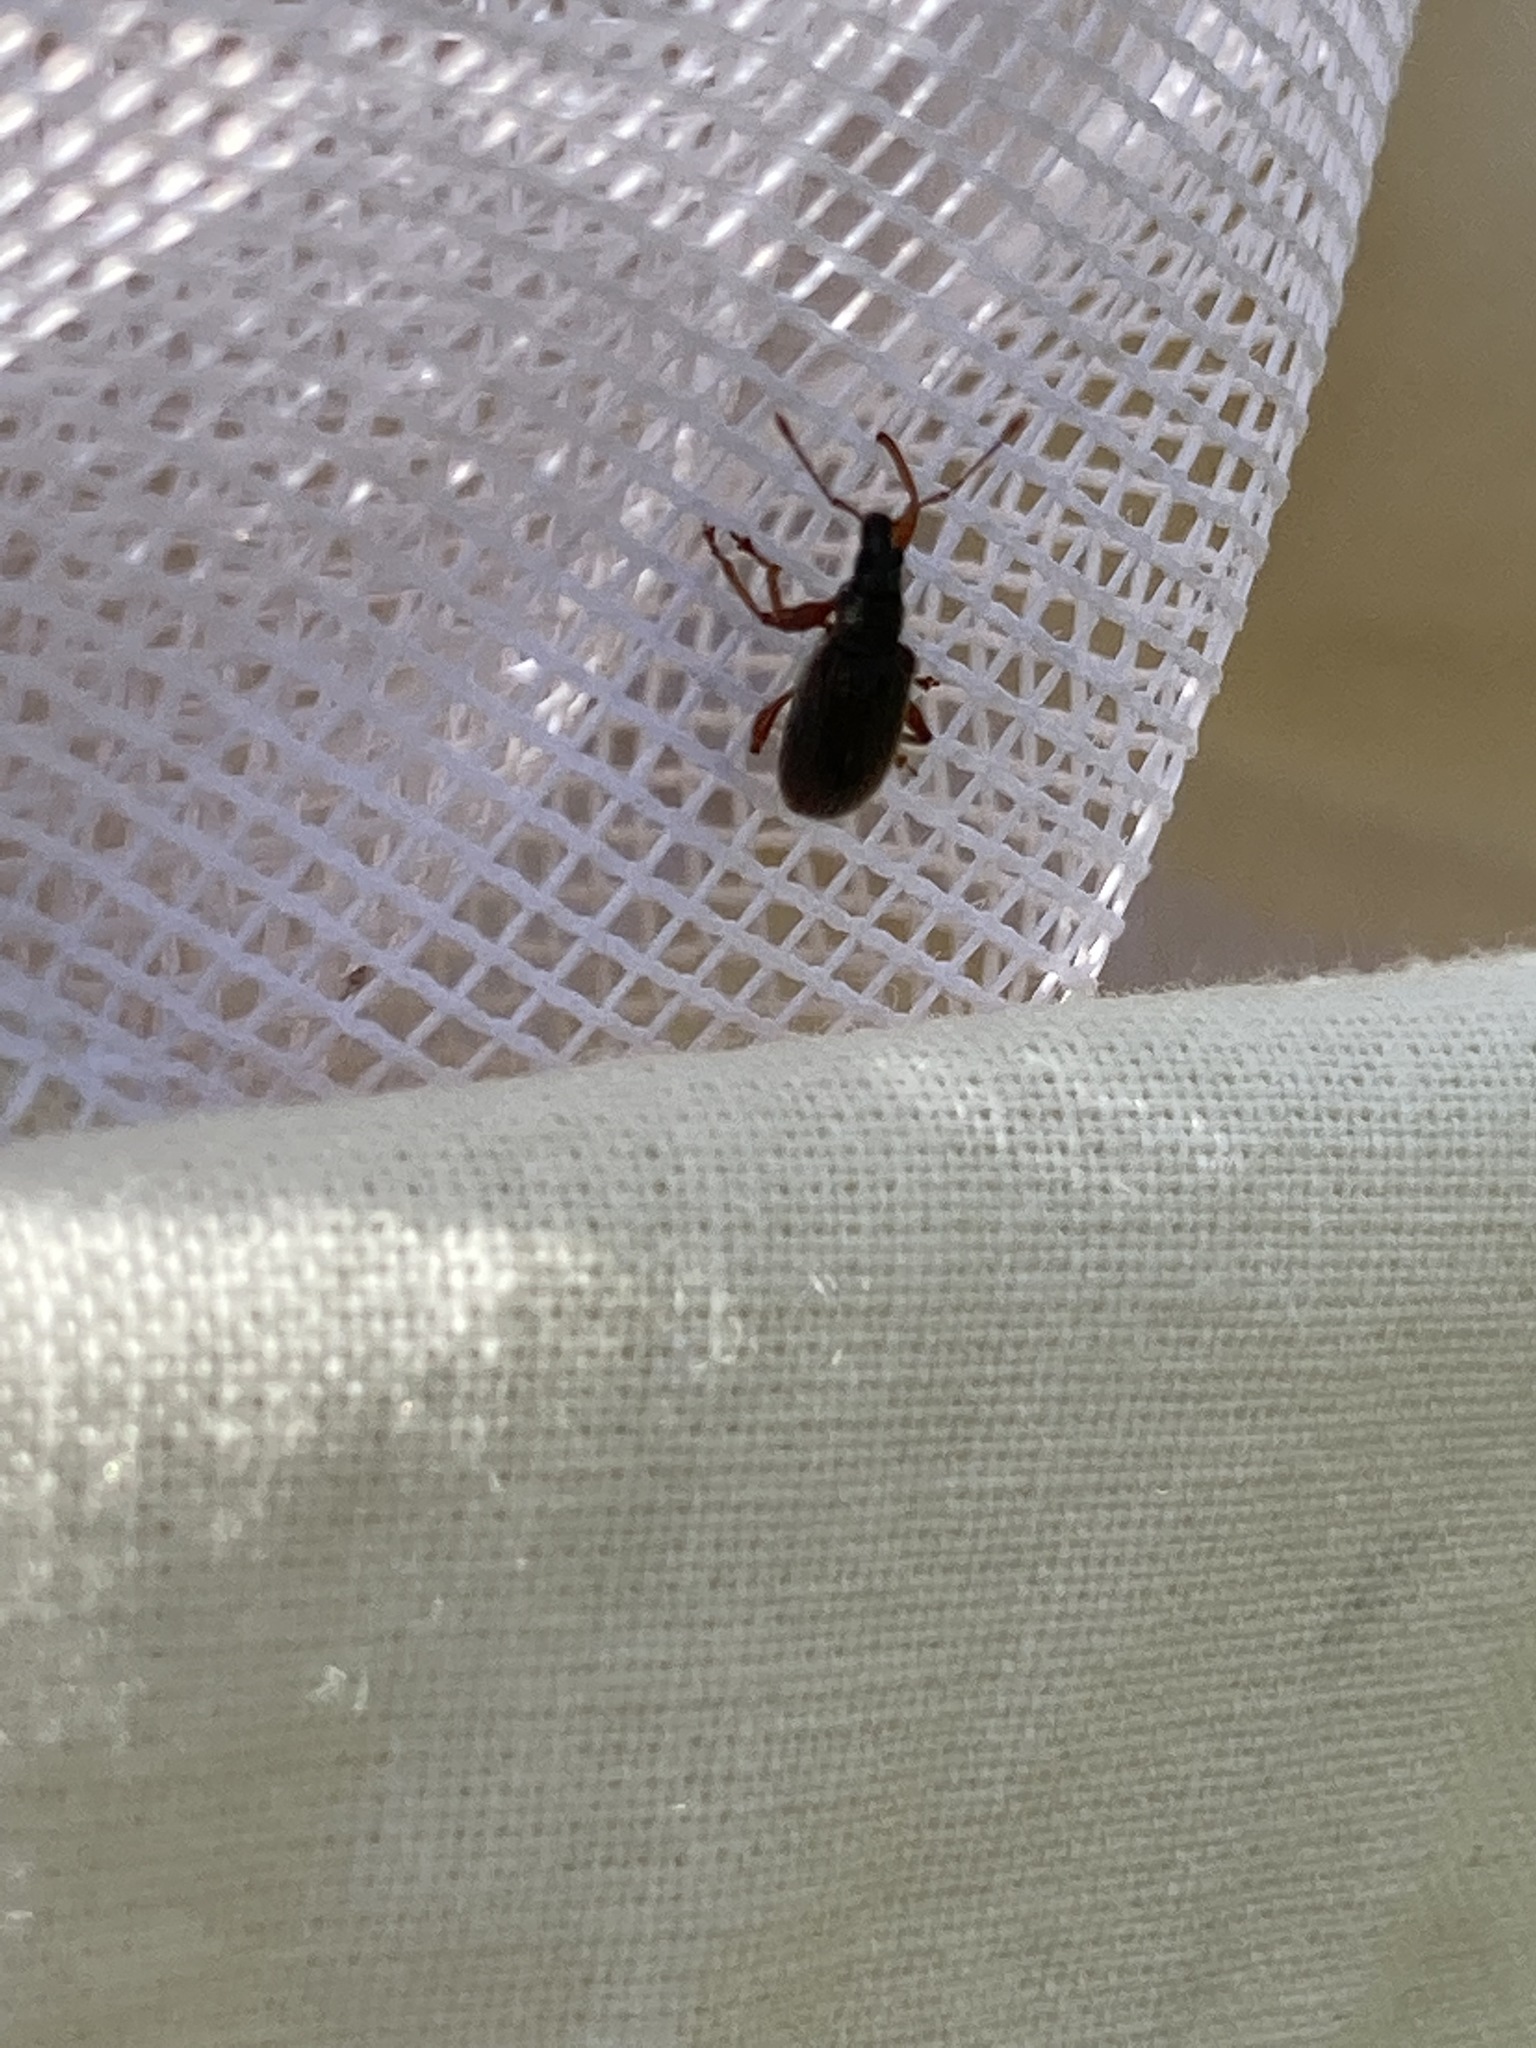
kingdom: Animalia
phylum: Arthropoda
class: Insecta
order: Coleoptera
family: Curculionidae
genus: Phyllobius
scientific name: Phyllobius oblongus
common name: Brown leaf weevil
